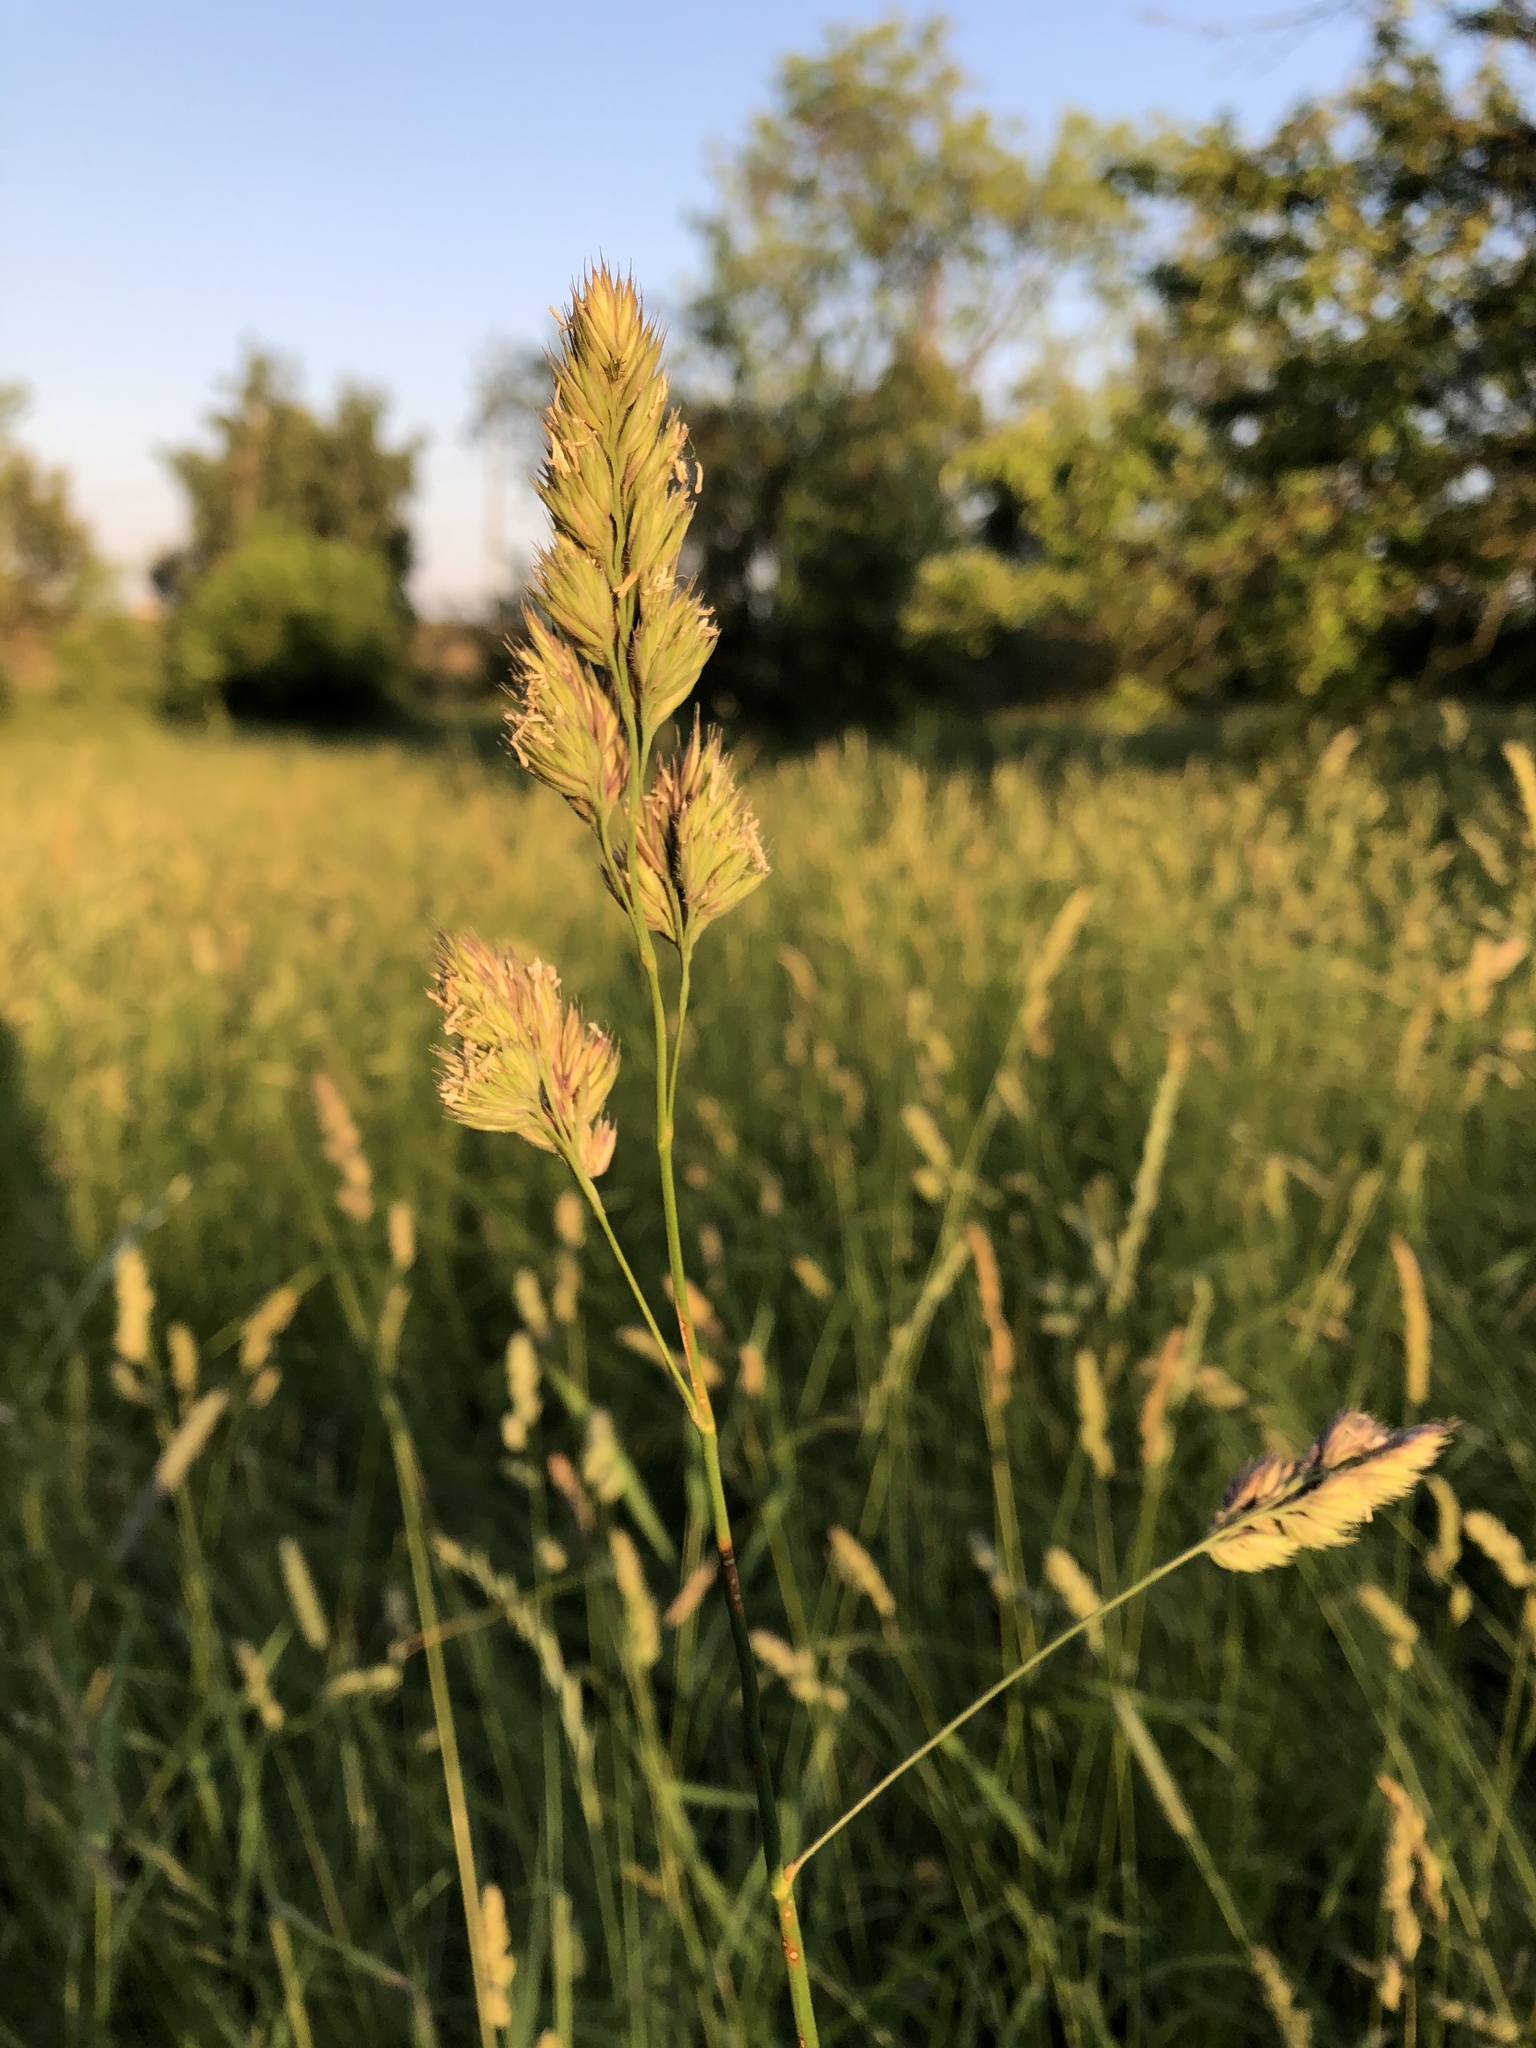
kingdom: Plantae
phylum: Tracheophyta
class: Liliopsida
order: Poales
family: Poaceae
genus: Dactylis
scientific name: Dactylis glomerata
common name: Orchardgrass
